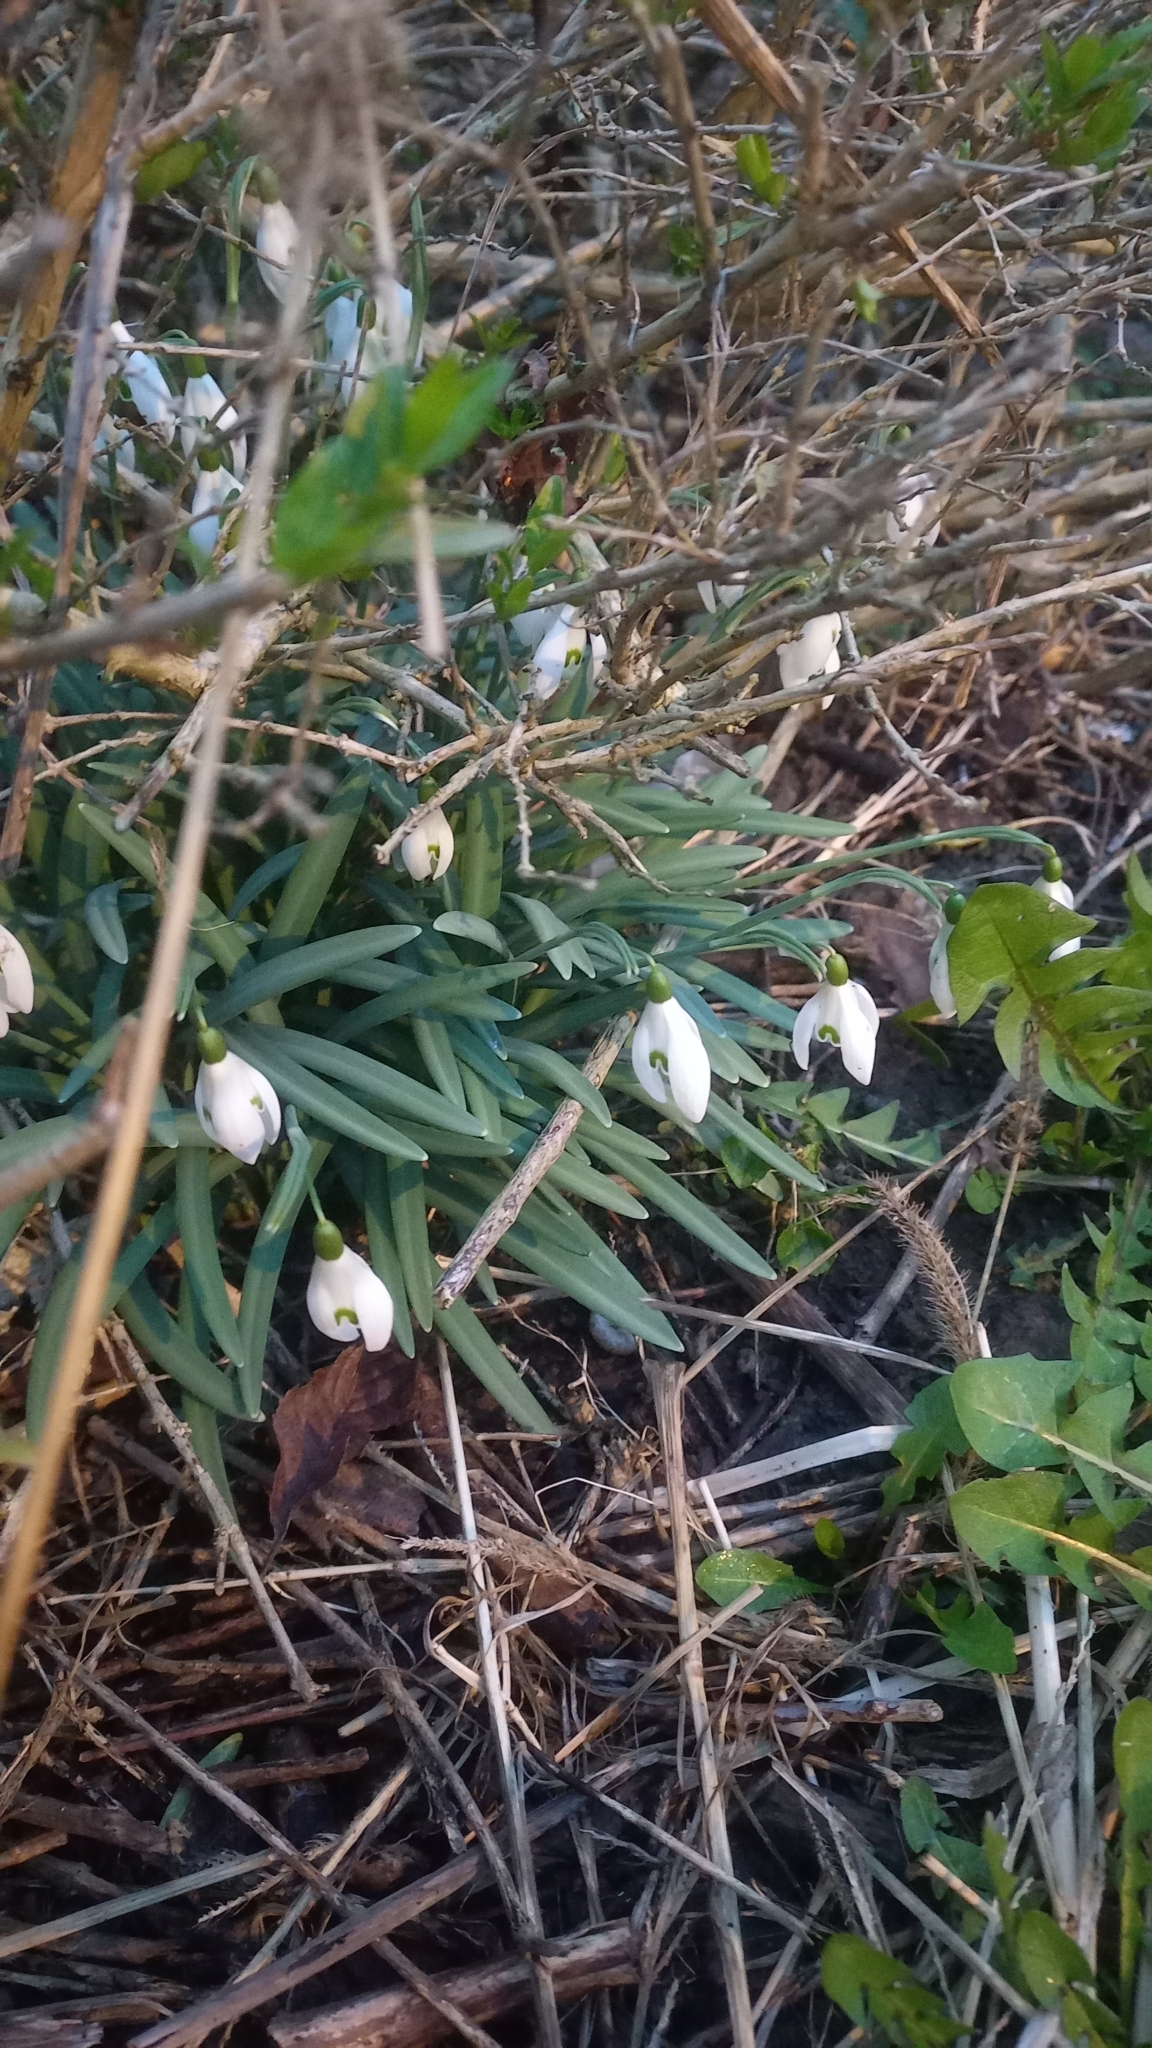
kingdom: Plantae
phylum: Tracheophyta
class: Liliopsida
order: Asparagales
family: Amaryllidaceae
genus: Galanthus
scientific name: Galanthus nivalis
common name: Snowdrop
